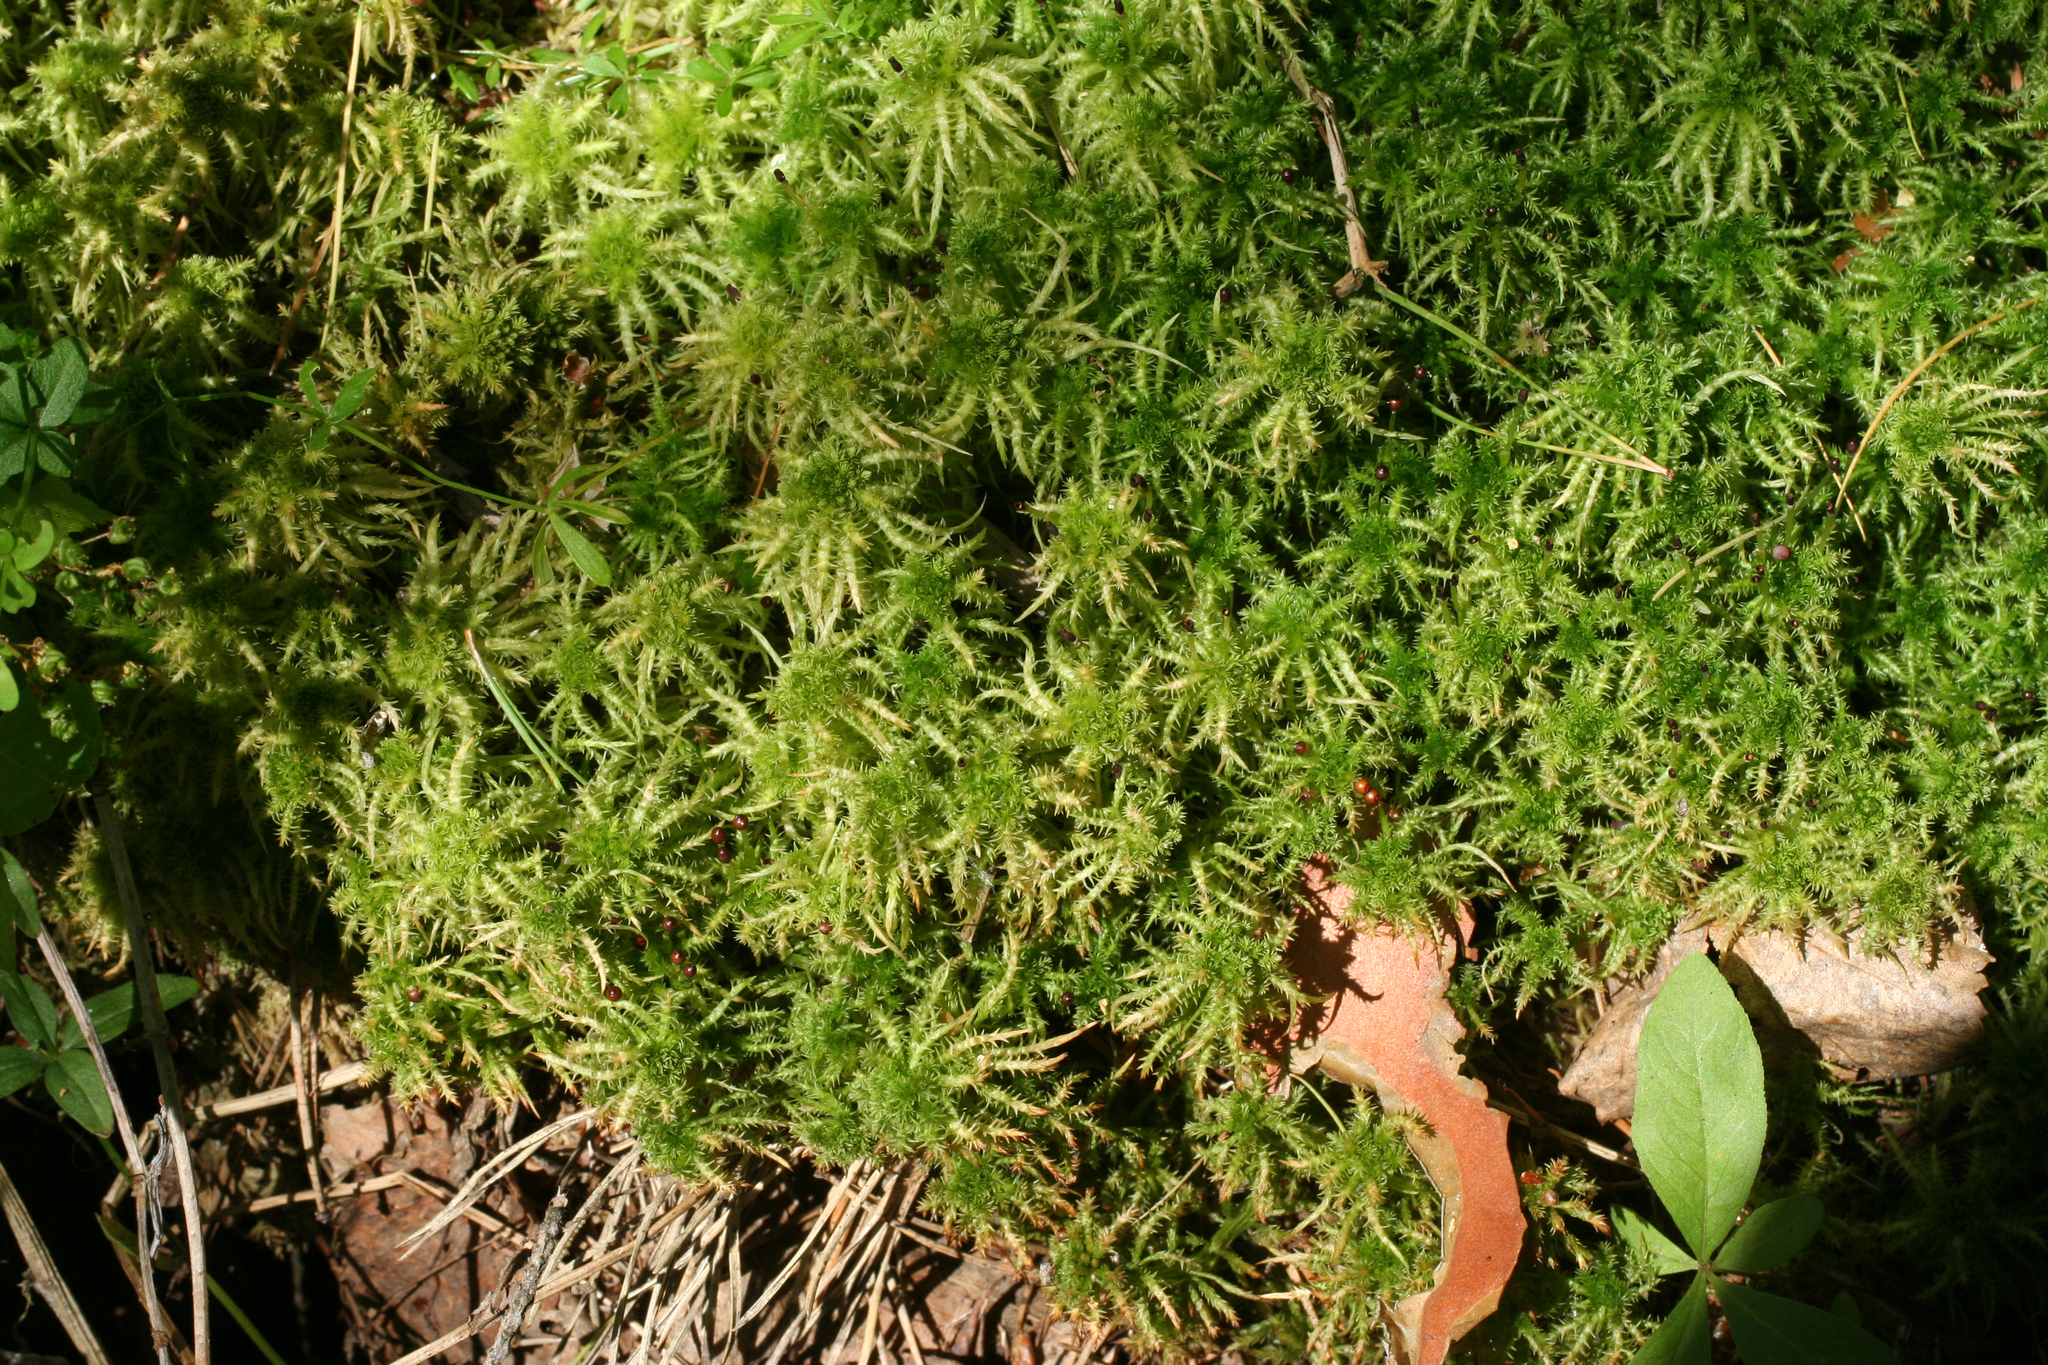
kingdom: Plantae
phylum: Bryophyta
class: Sphagnopsida
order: Sphagnales
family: Sphagnaceae
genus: Sphagnum
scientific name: Sphagnum squarrosum
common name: Shaggy peat moss
